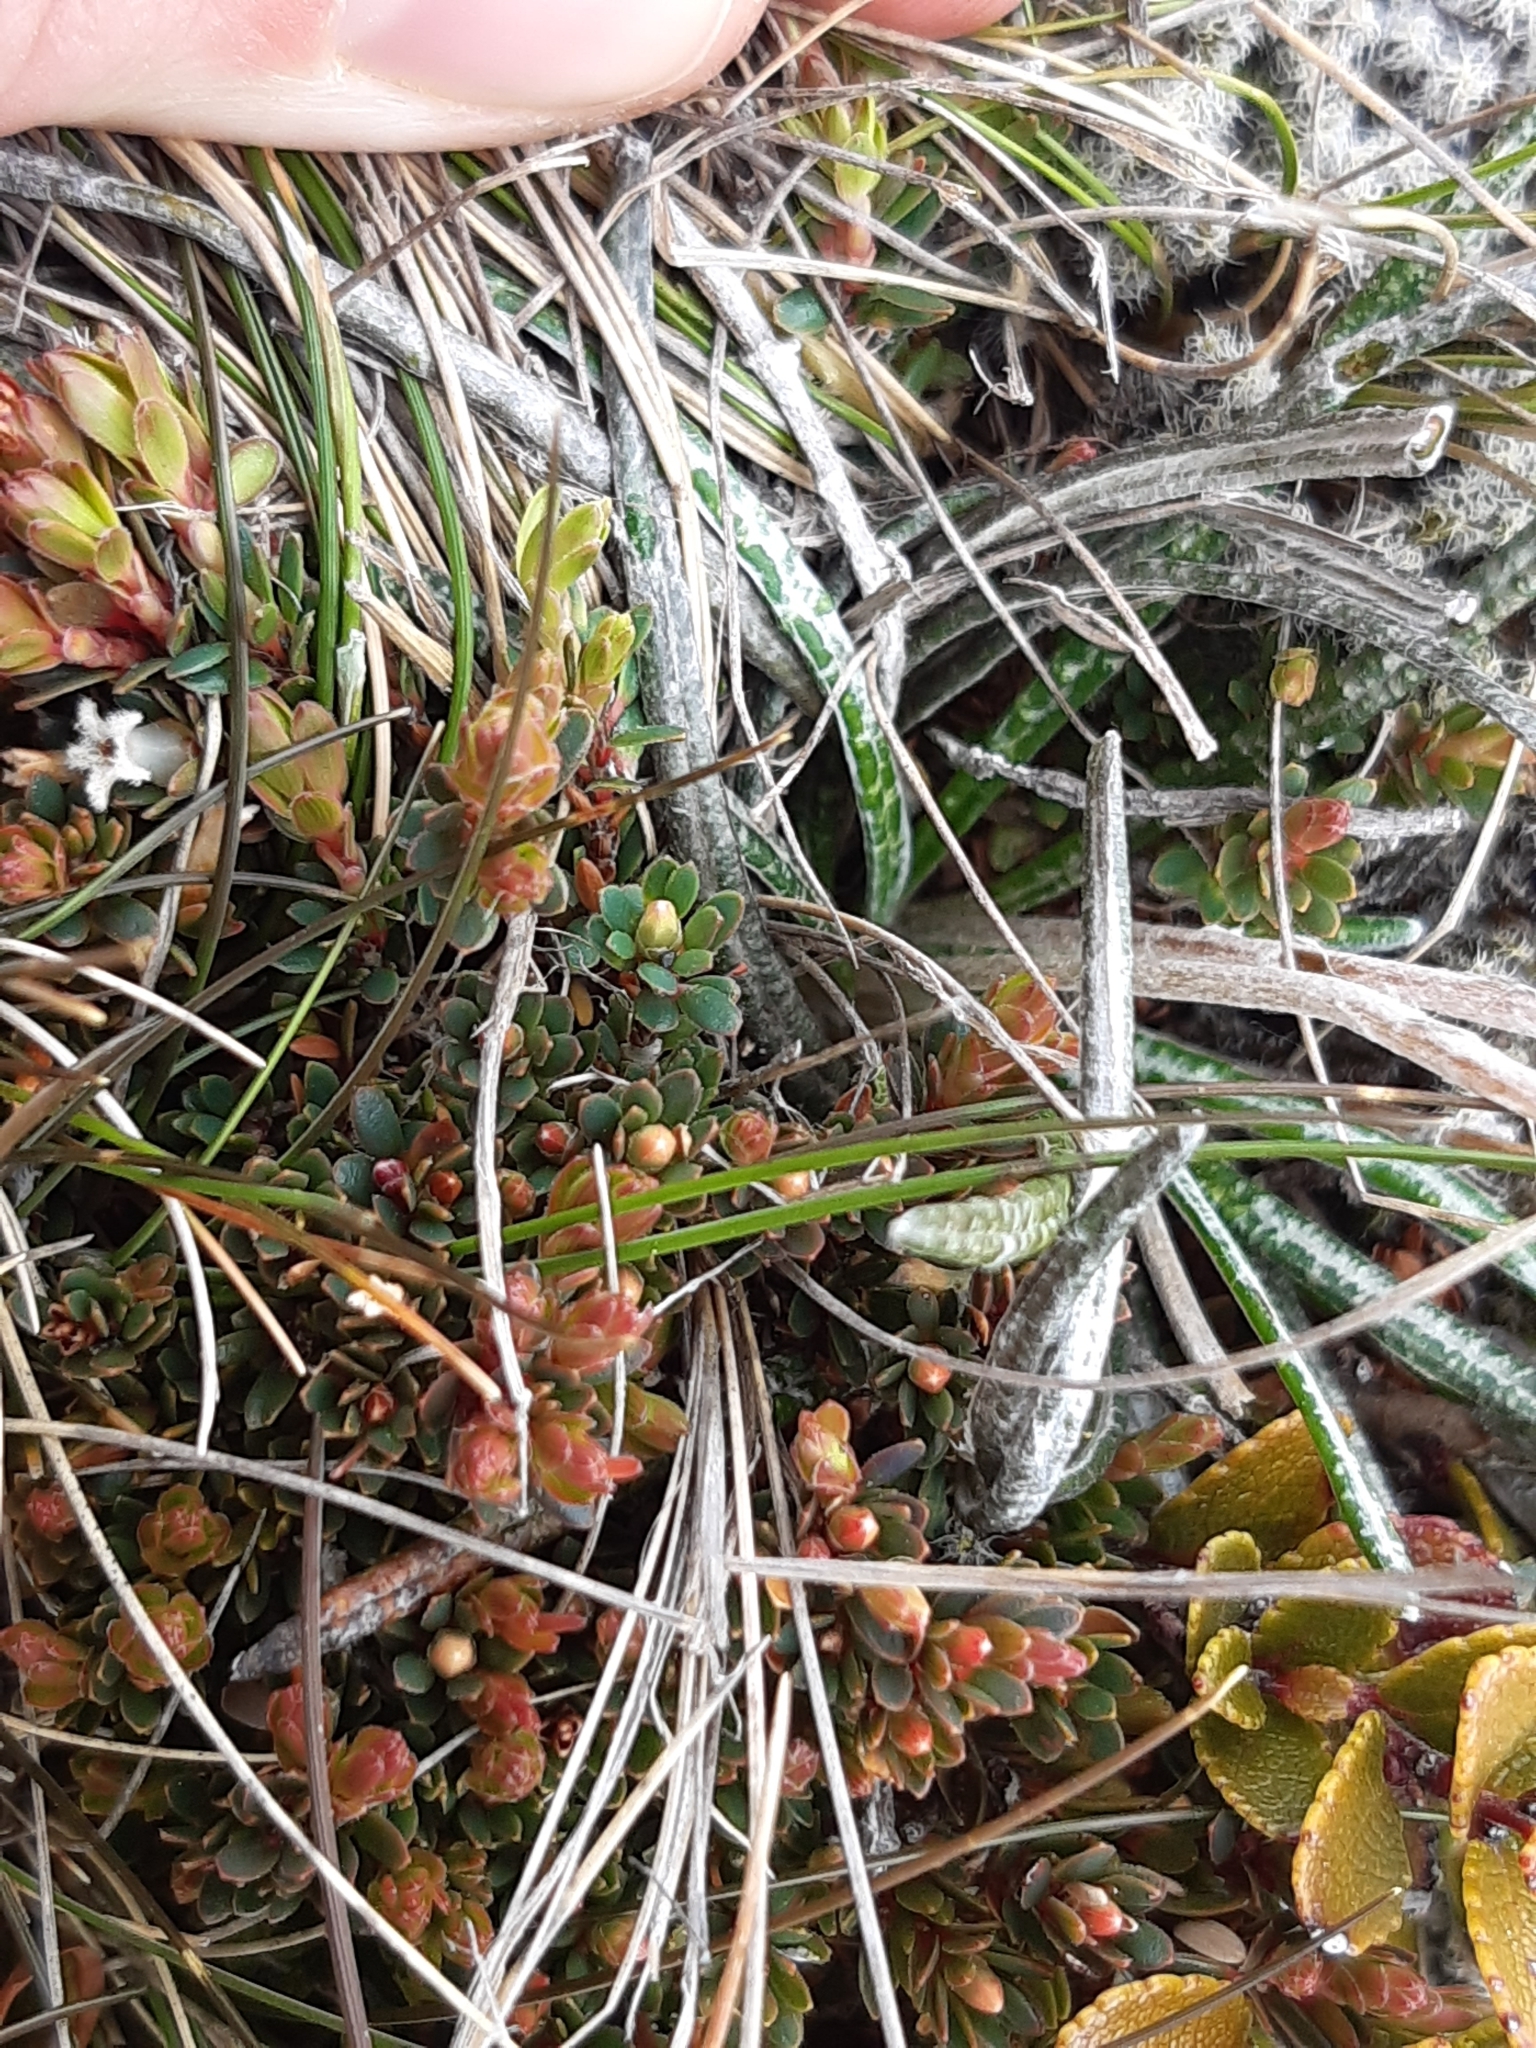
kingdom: Plantae
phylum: Tracheophyta
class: Magnoliopsida
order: Asterales
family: Asteraceae
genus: Celmisia
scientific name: Celmisia gracilenta
